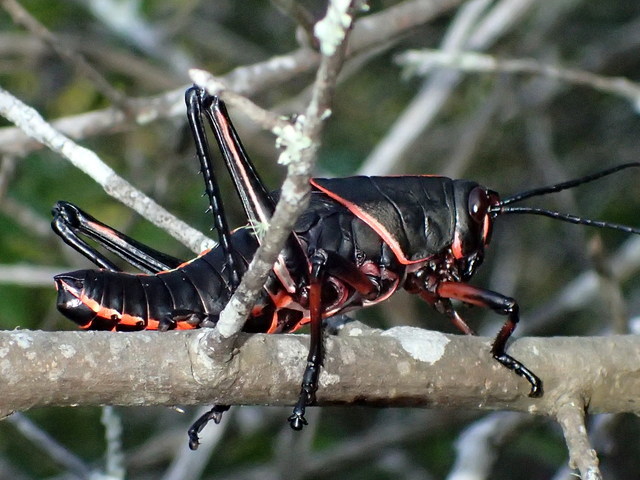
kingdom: Animalia
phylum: Arthropoda
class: Insecta
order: Orthoptera
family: Romaleidae
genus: Romalea
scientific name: Romalea microptera
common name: Eastern lubber grasshopper
